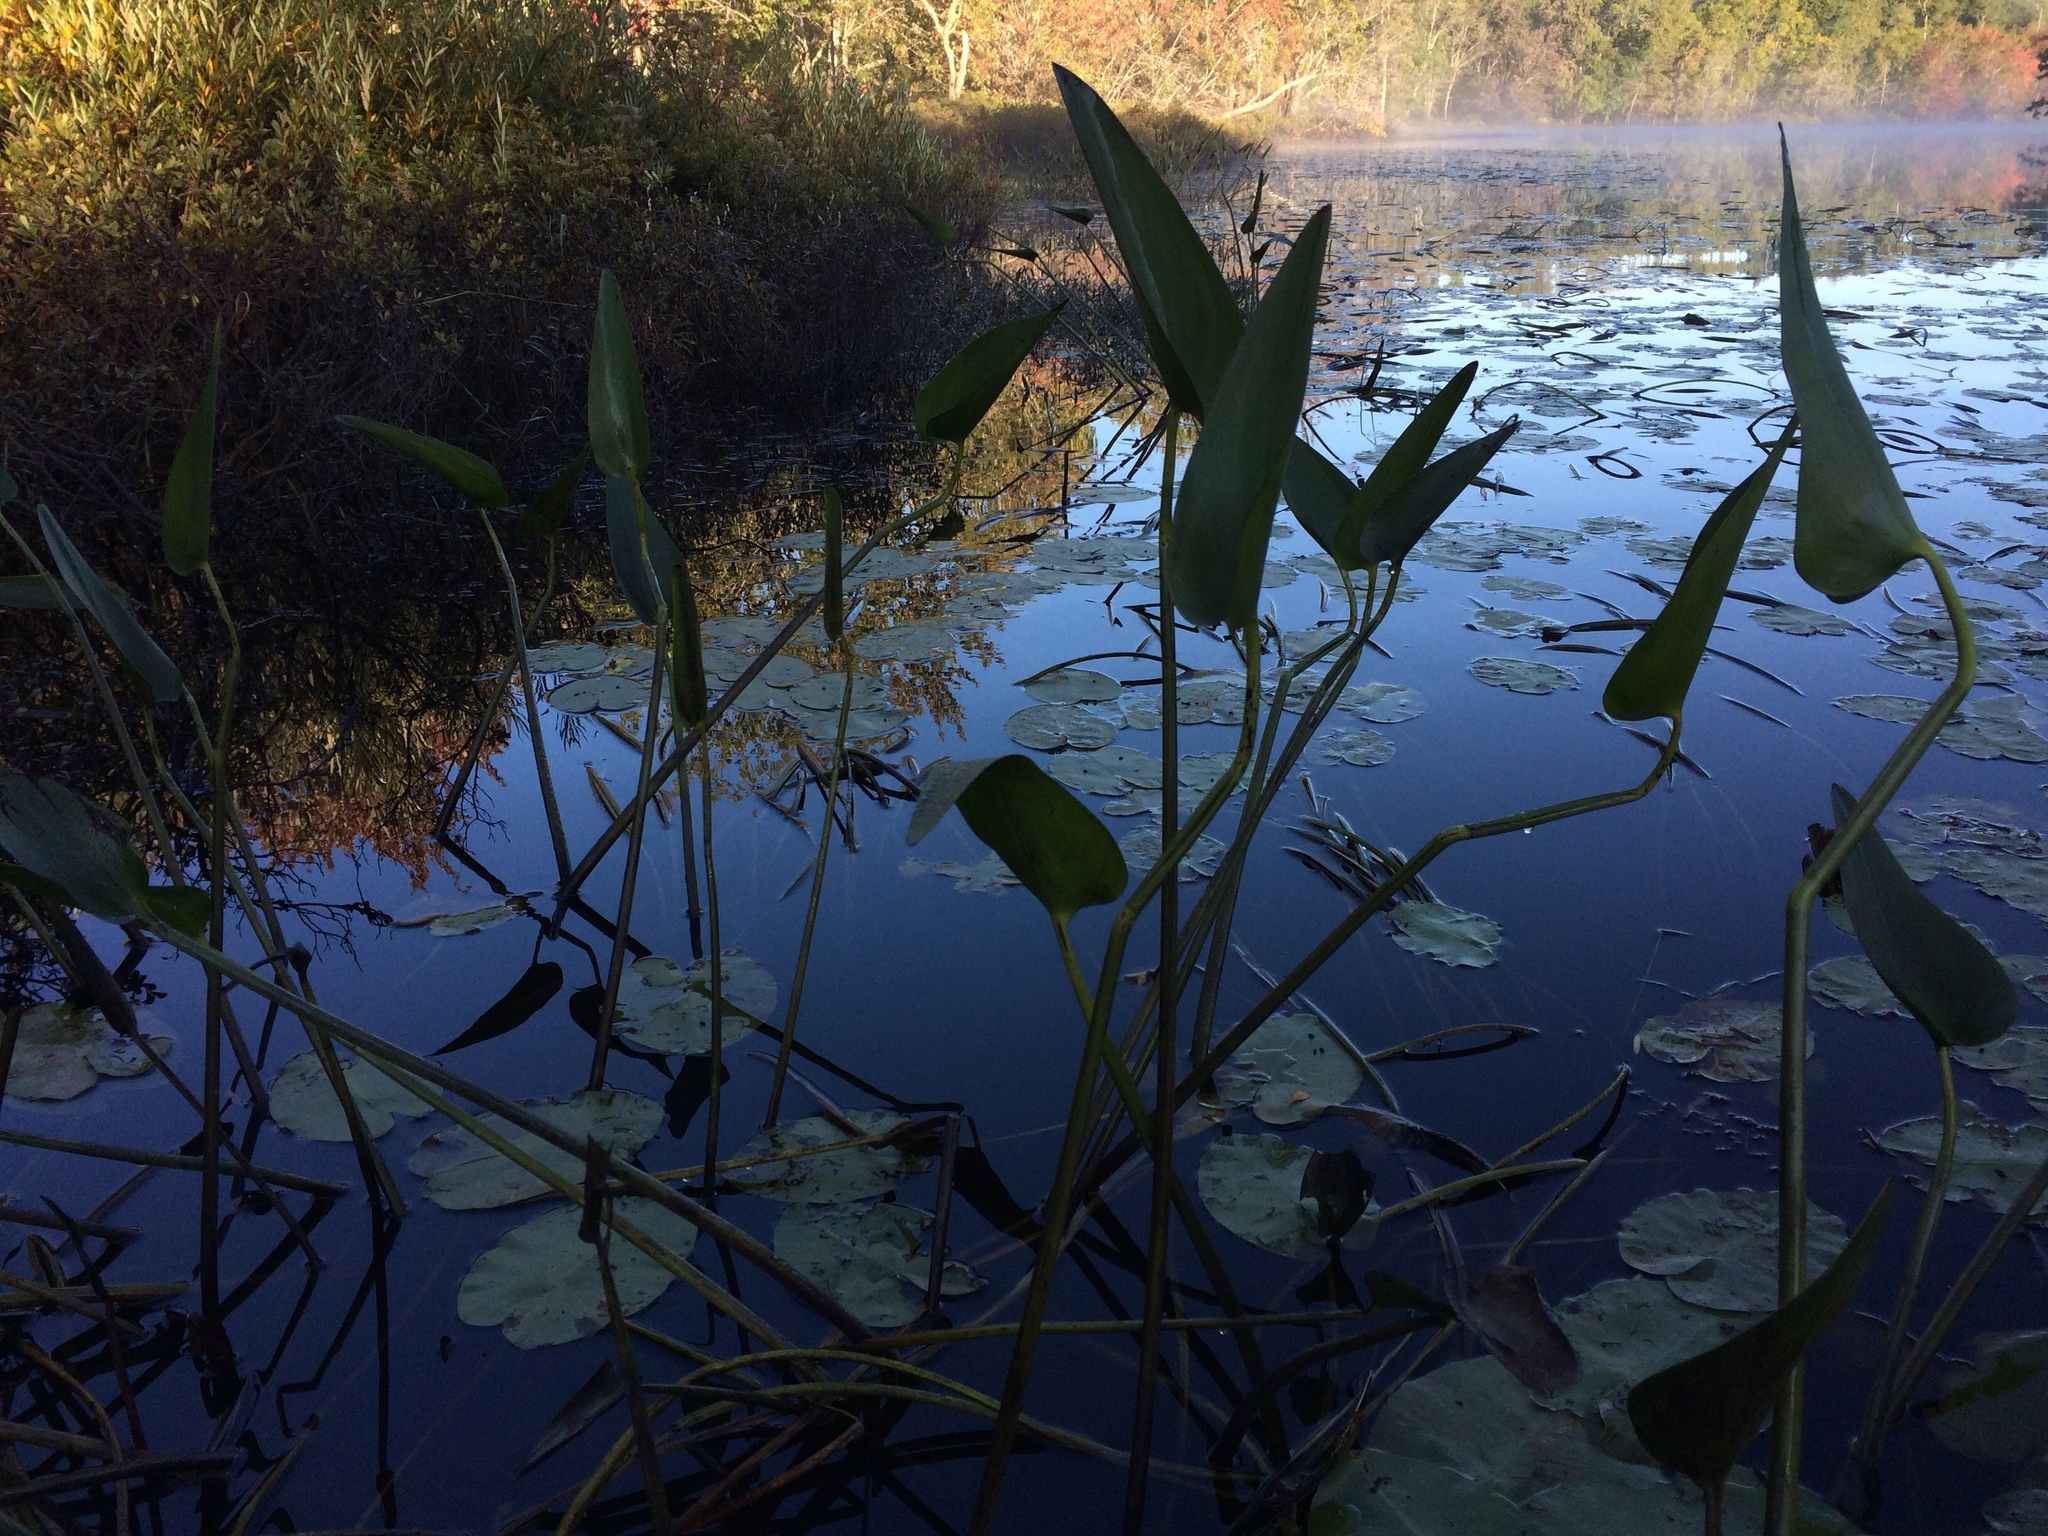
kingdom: Plantae
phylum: Tracheophyta
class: Liliopsida
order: Commelinales
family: Pontederiaceae
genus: Pontederia
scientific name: Pontederia cordata
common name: Pickerelweed
